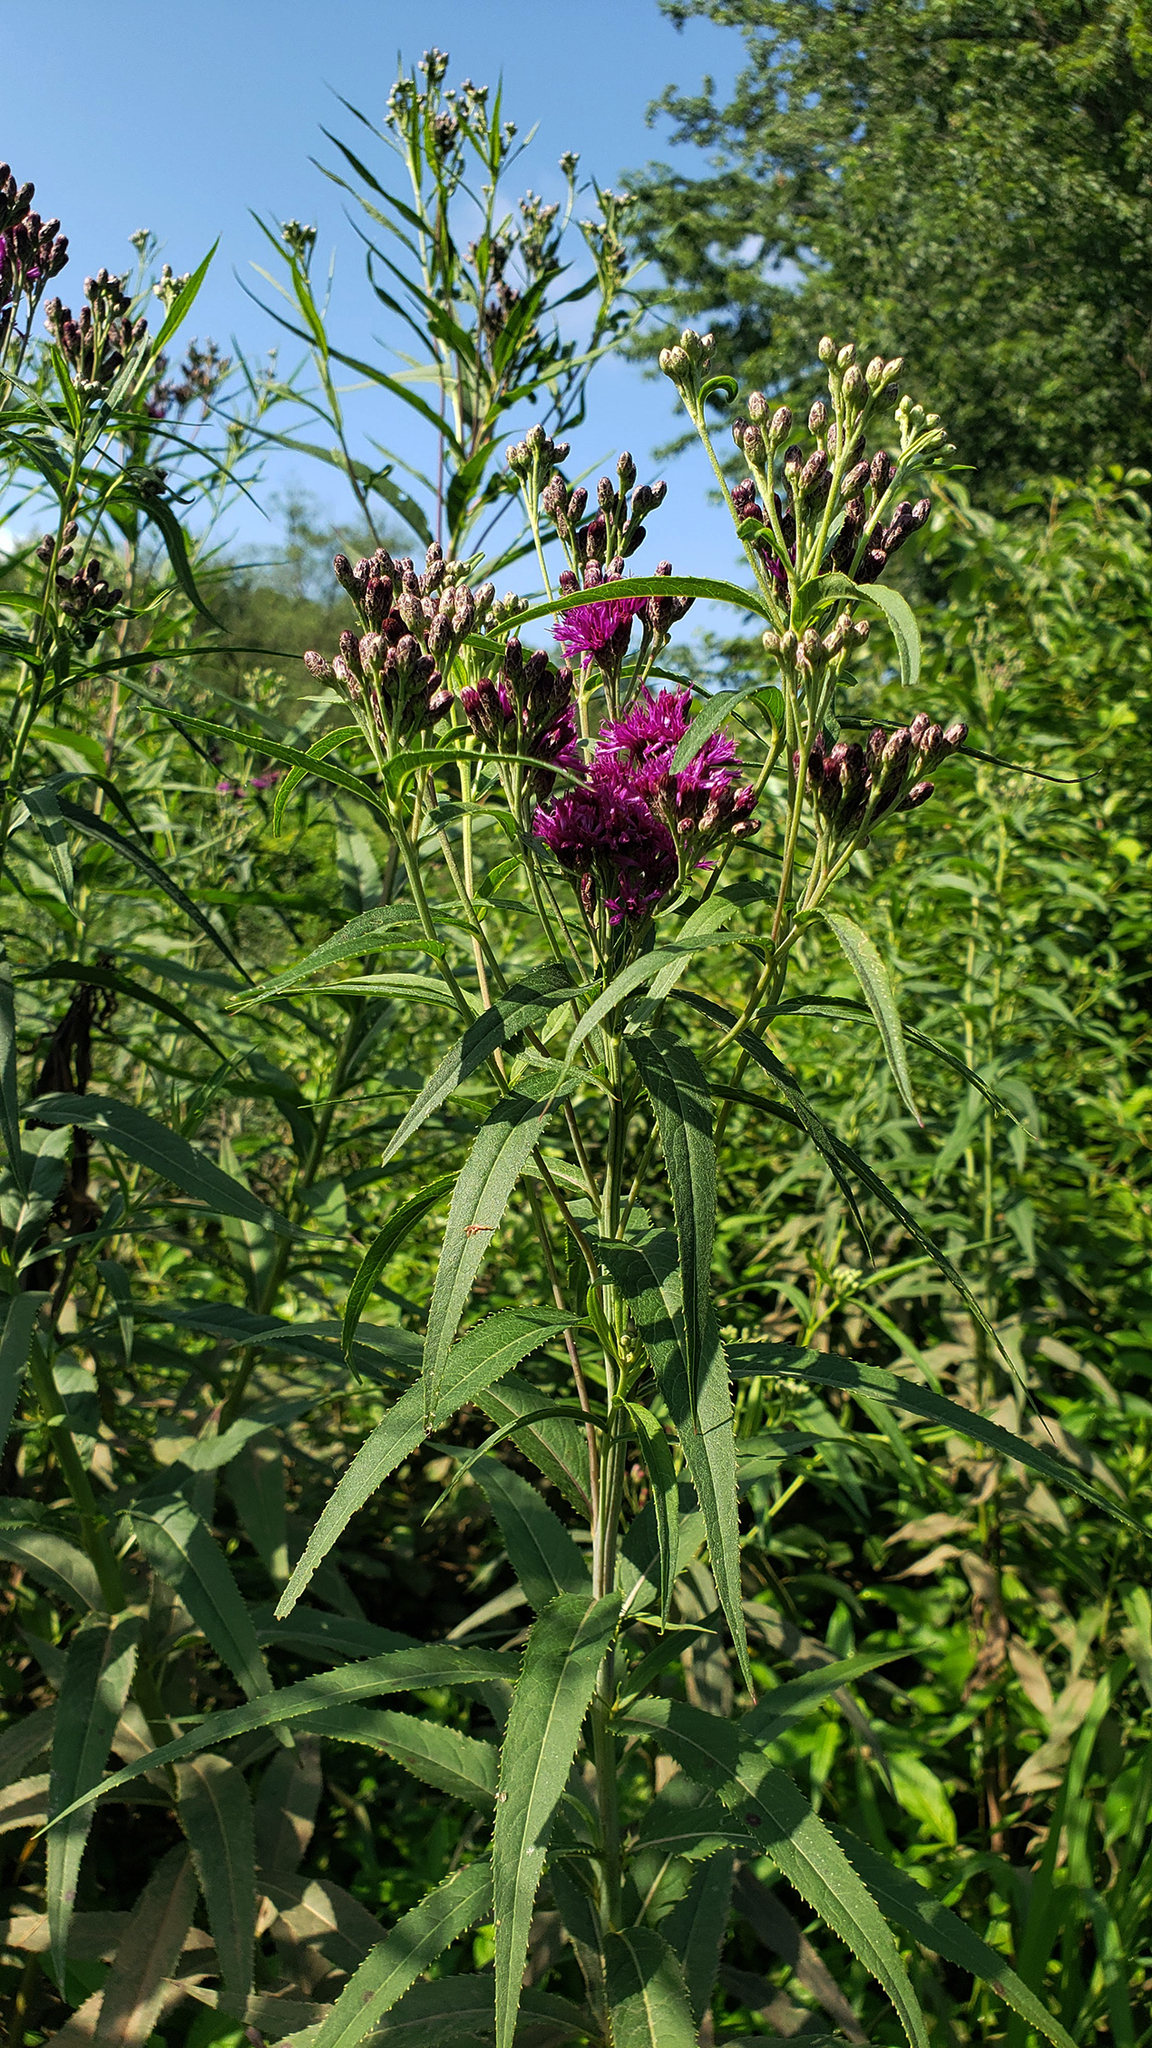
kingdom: Plantae
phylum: Tracheophyta
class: Magnoliopsida
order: Asterales
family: Asteraceae
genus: Vernonia
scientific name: Vernonia fasciculata
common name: Fascicled ironweed
